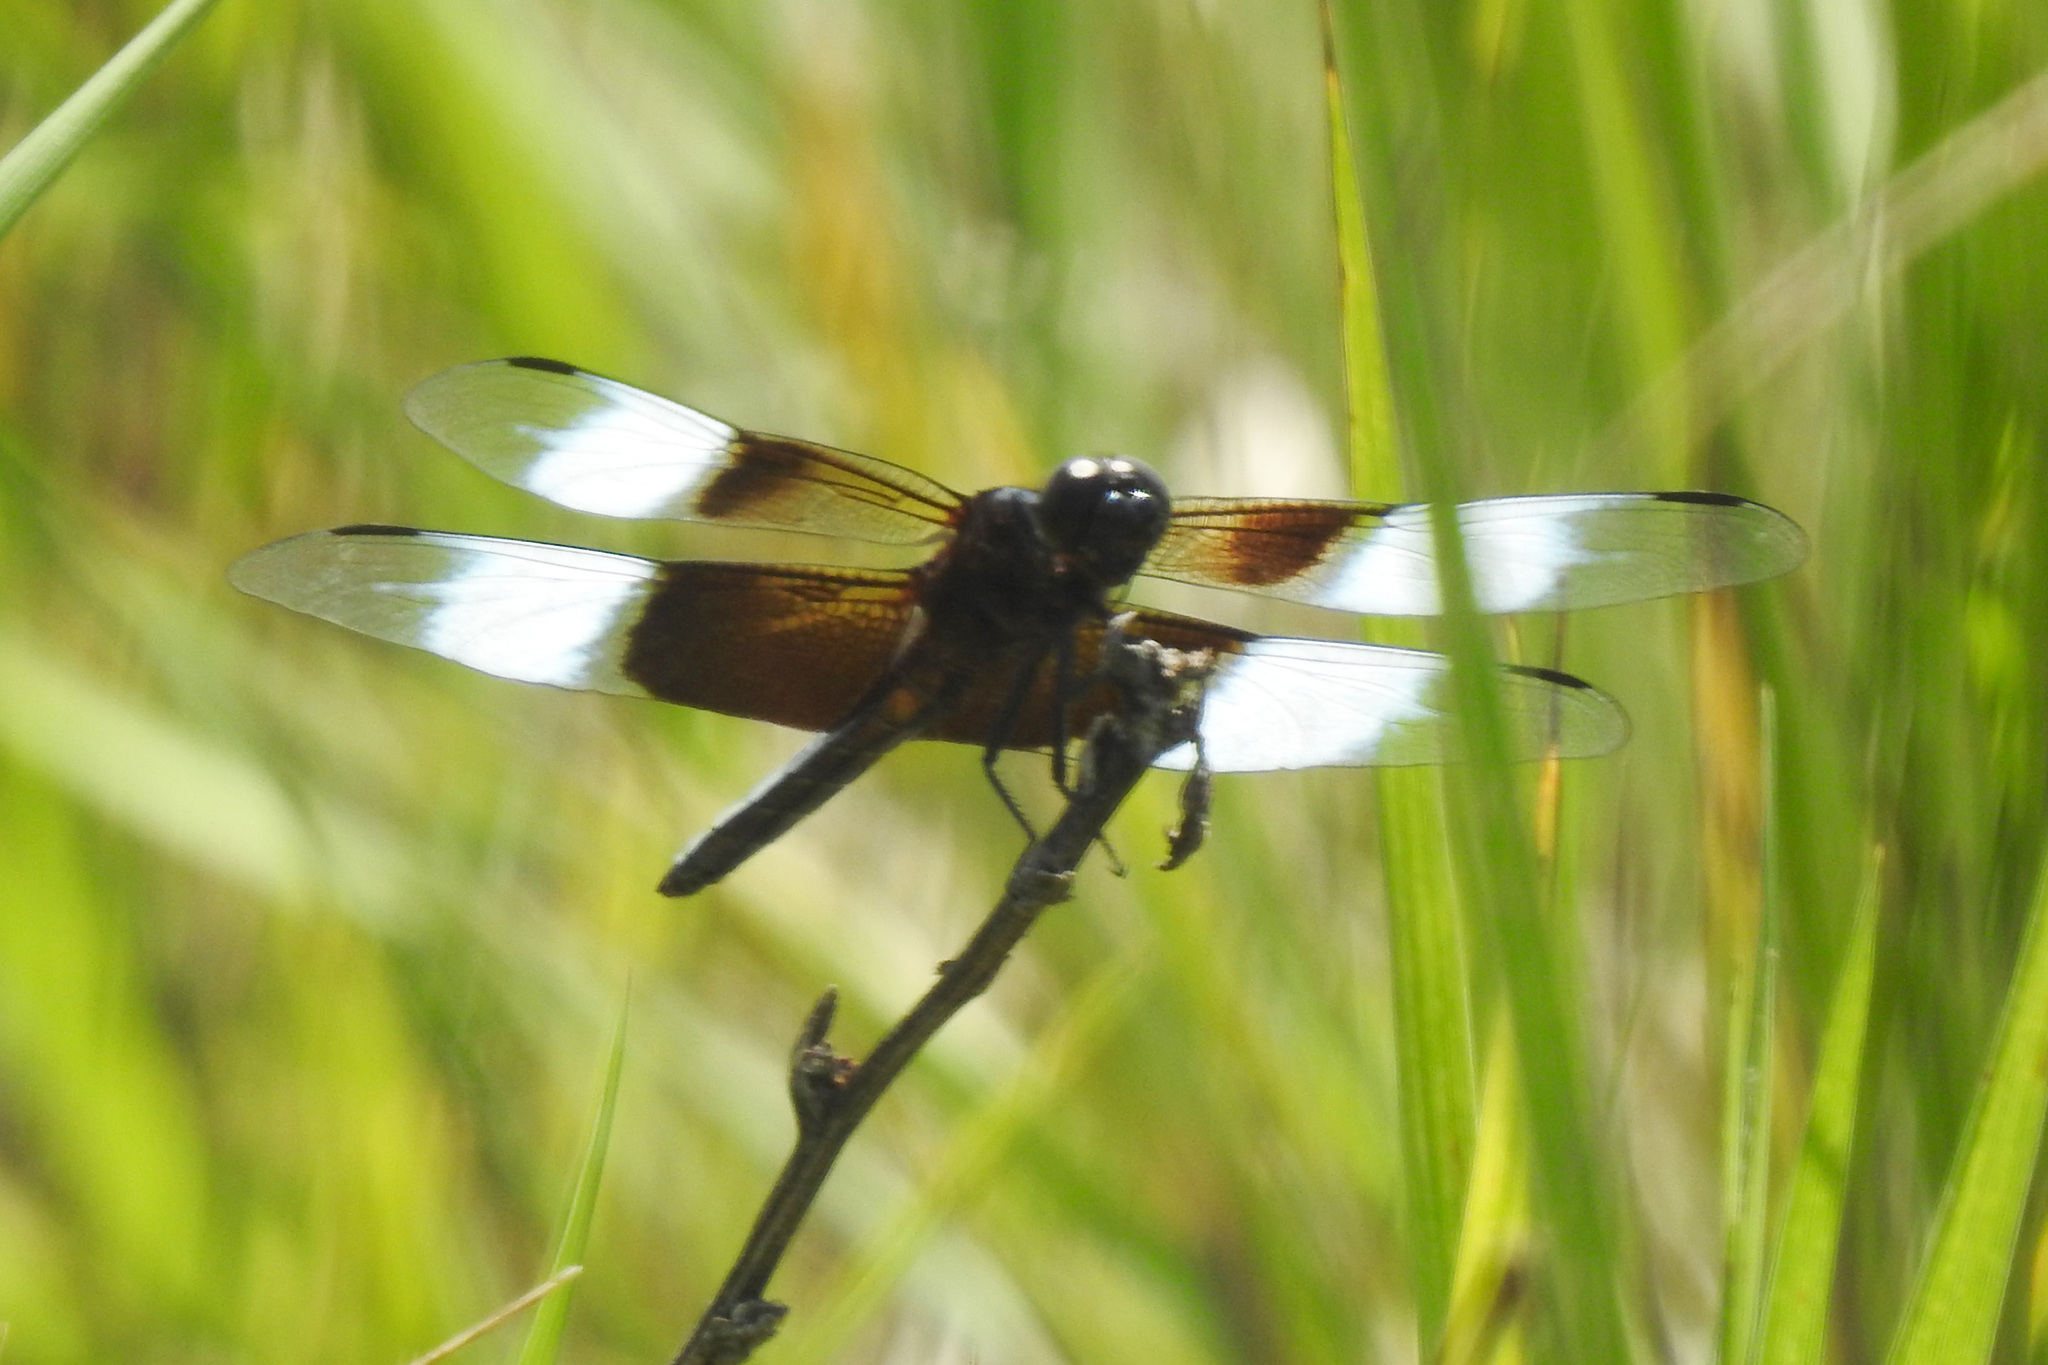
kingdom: Animalia
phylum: Arthropoda
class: Insecta
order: Odonata
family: Libellulidae
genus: Libellula
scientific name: Libellula luctuosa
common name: Widow skimmer
